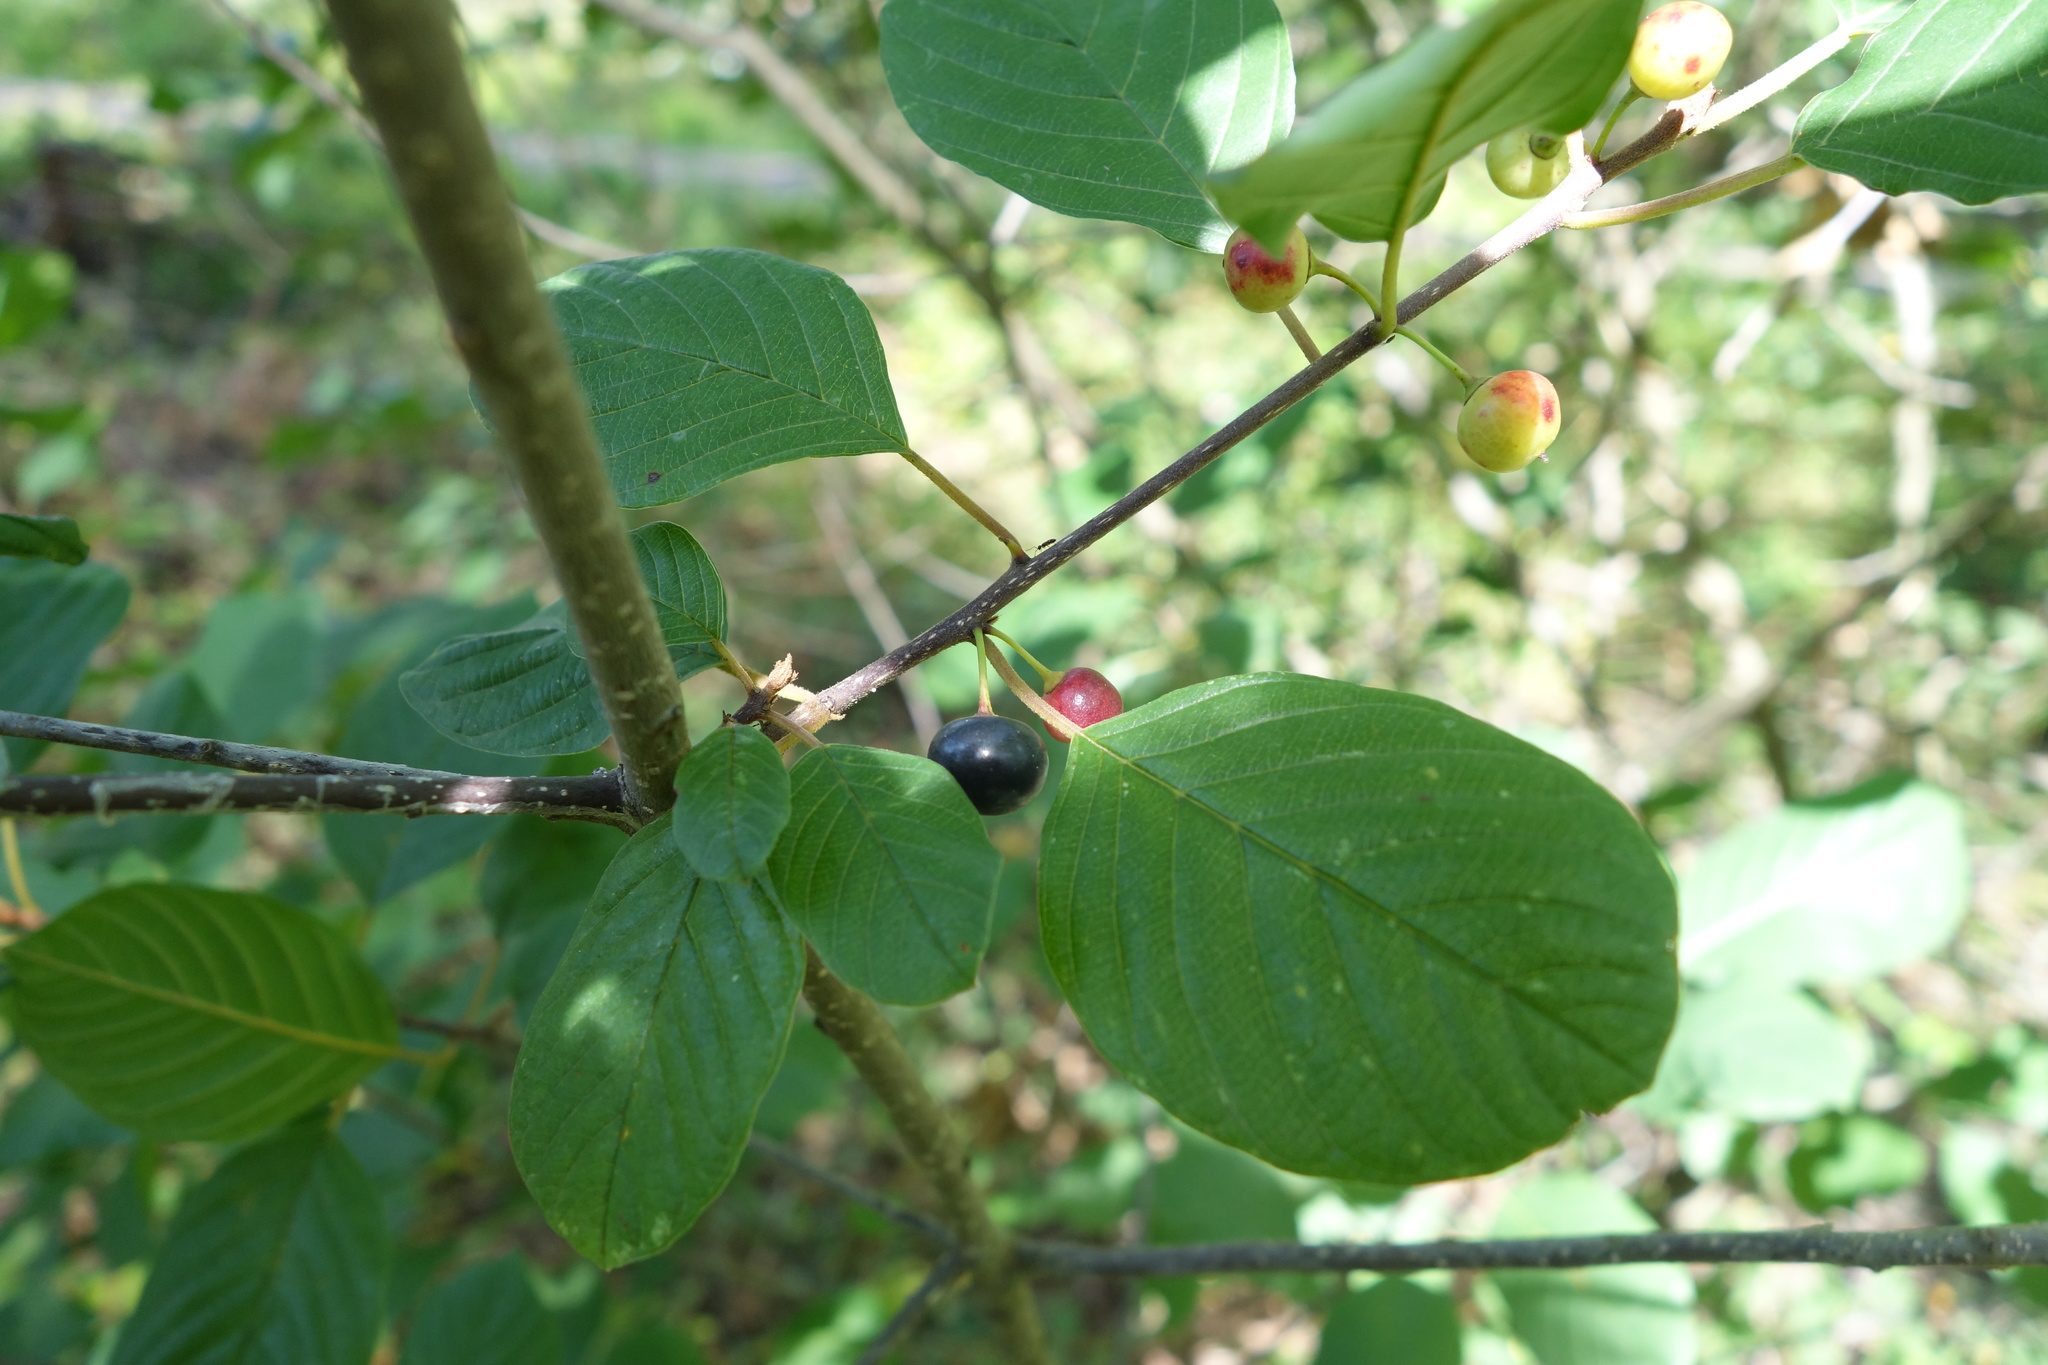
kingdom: Plantae
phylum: Tracheophyta
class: Magnoliopsida
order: Rosales
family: Rhamnaceae
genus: Frangula
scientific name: Frangula alnus
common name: Alder buckthorn
